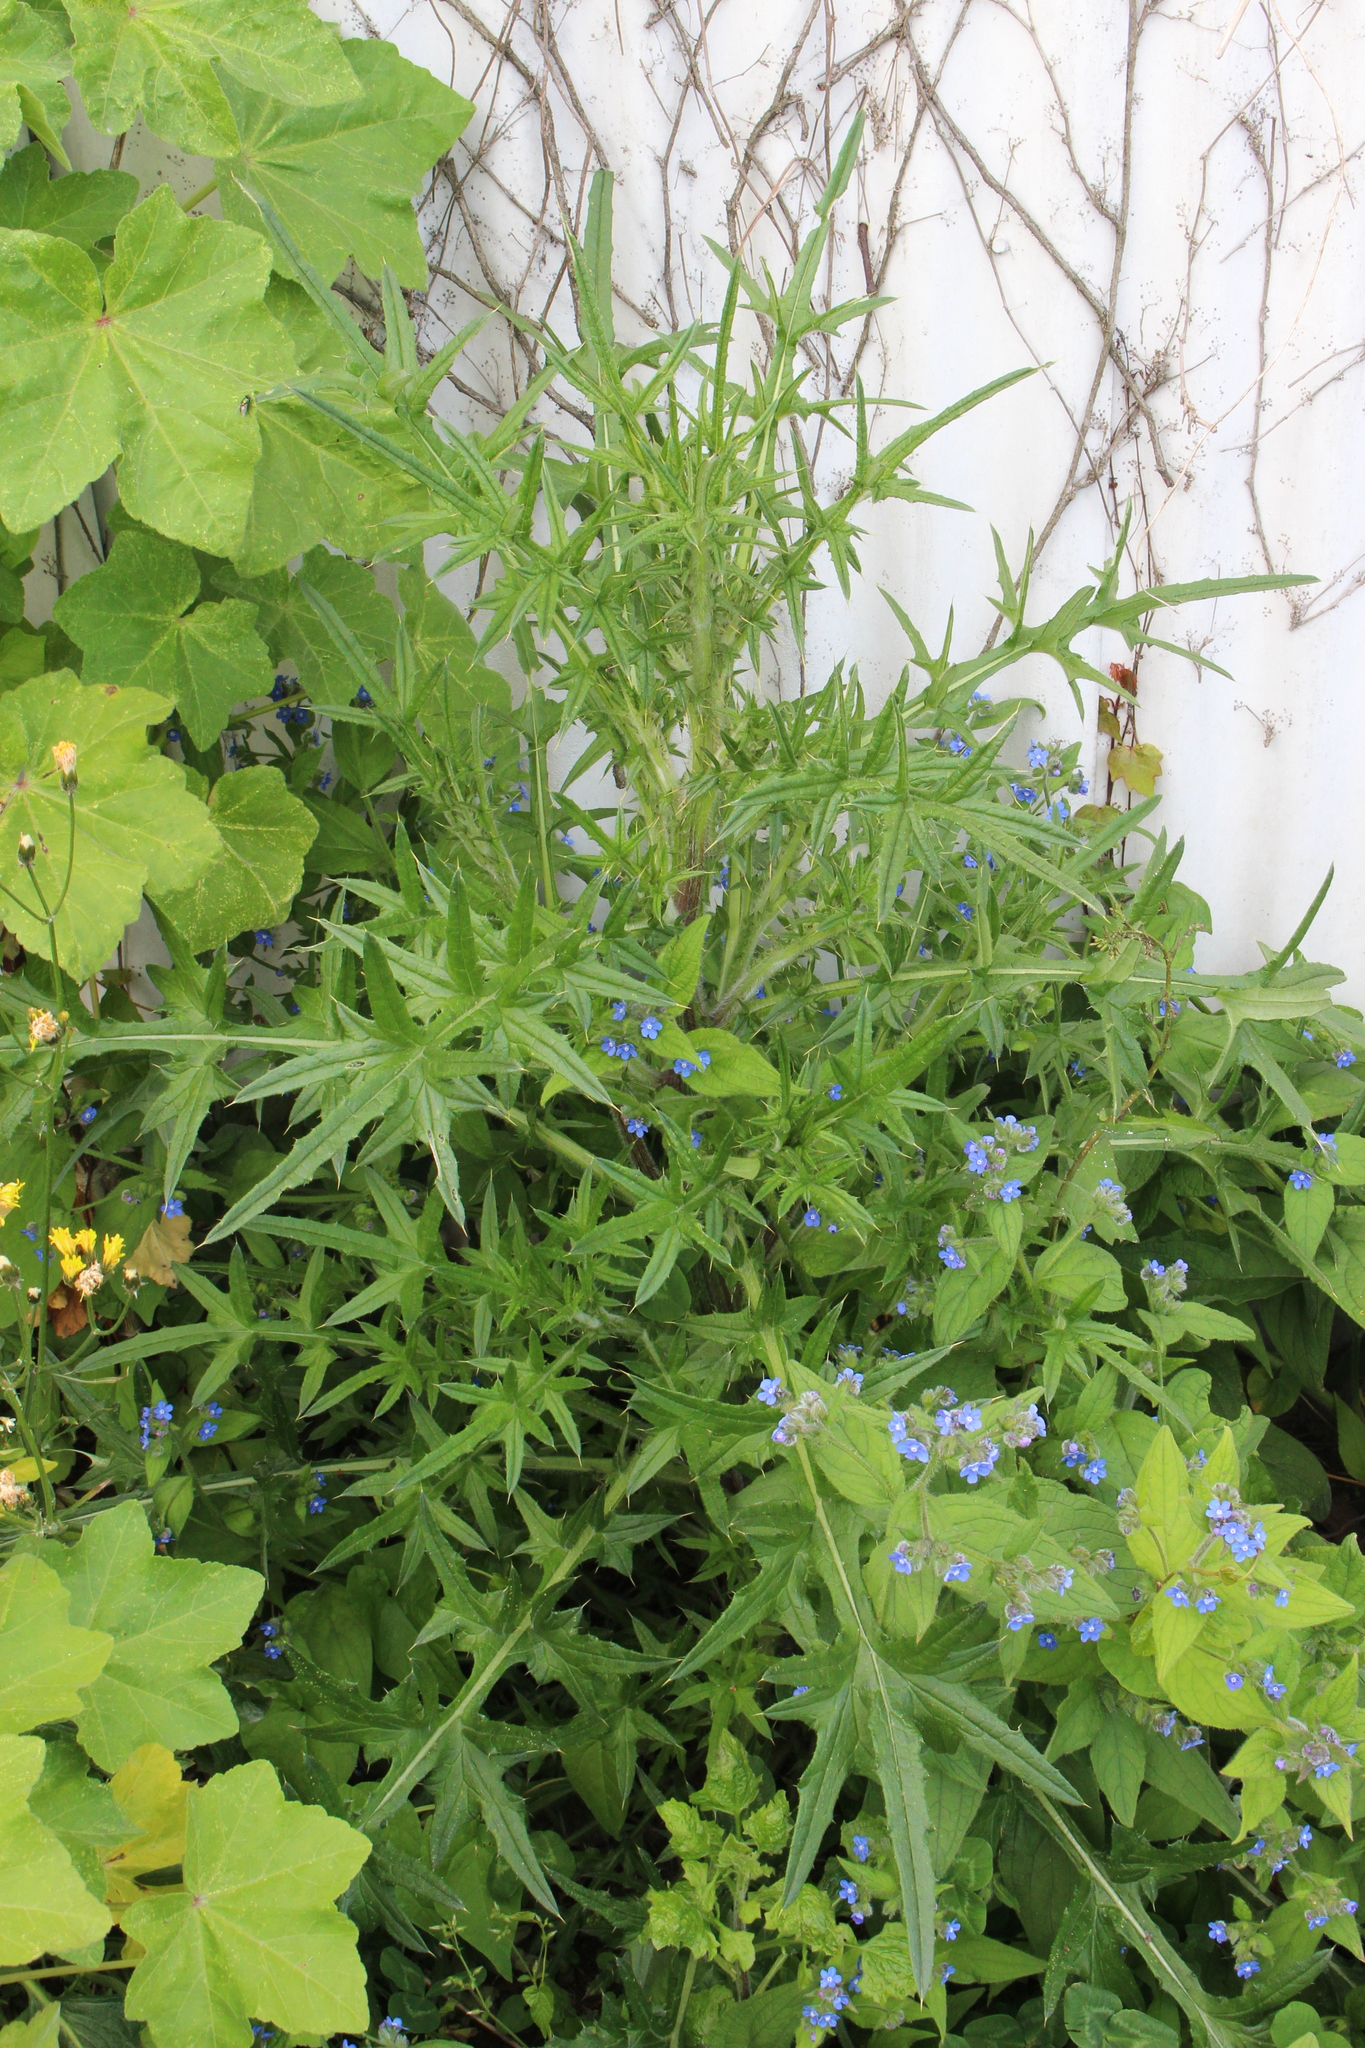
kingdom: Plantae
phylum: Tracheophyta
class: Magnoliopsida
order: Asterales
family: Asteraceae
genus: Cirsium
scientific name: Cirsium vulgare
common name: Bull thistle
